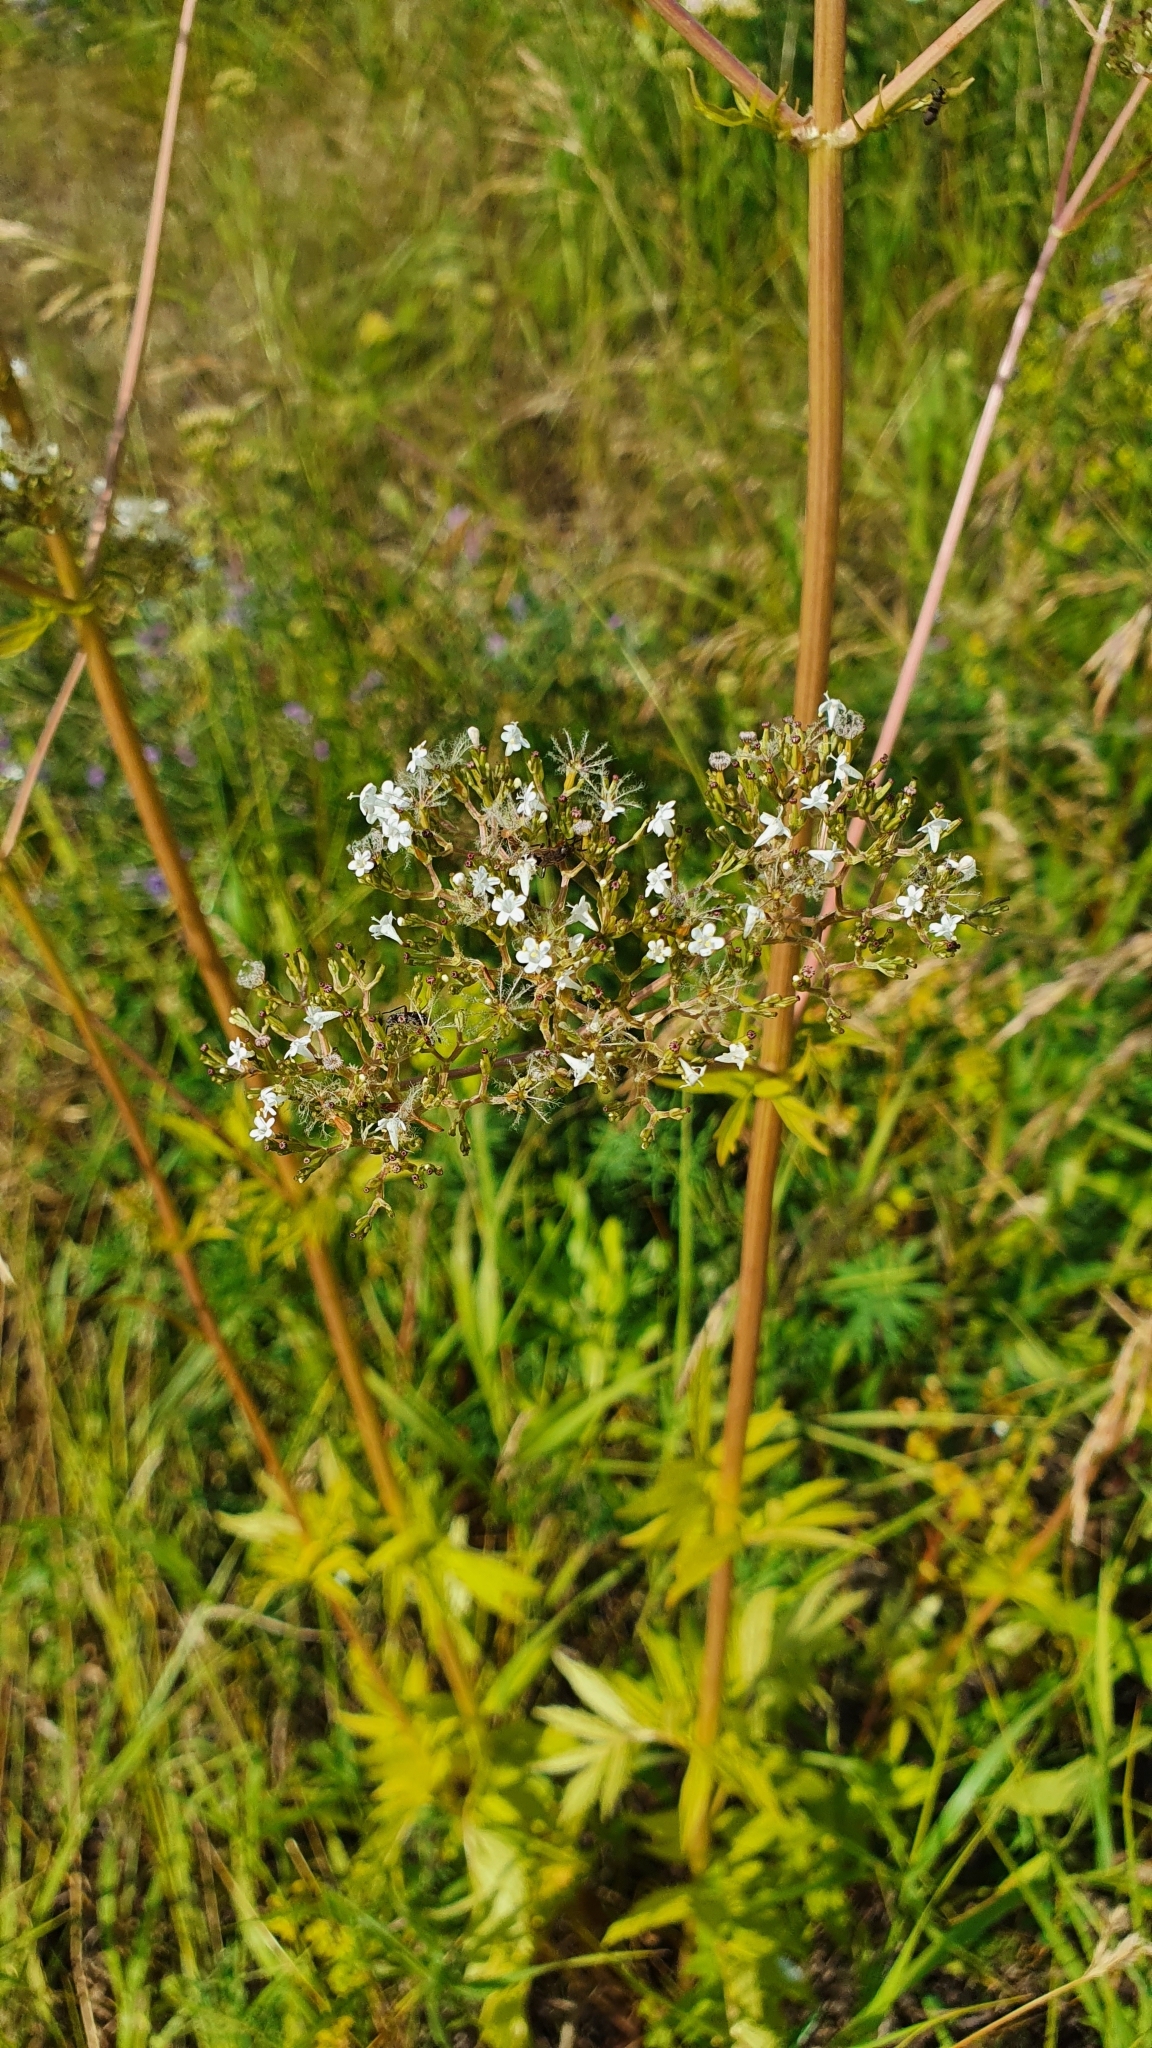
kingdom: Plantae
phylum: Tracheophyta
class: Magnoliopsida
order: Dipsacales
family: Caprifoliaceae
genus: Valeriana
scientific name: Valeriana officinalis
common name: Common valerian
